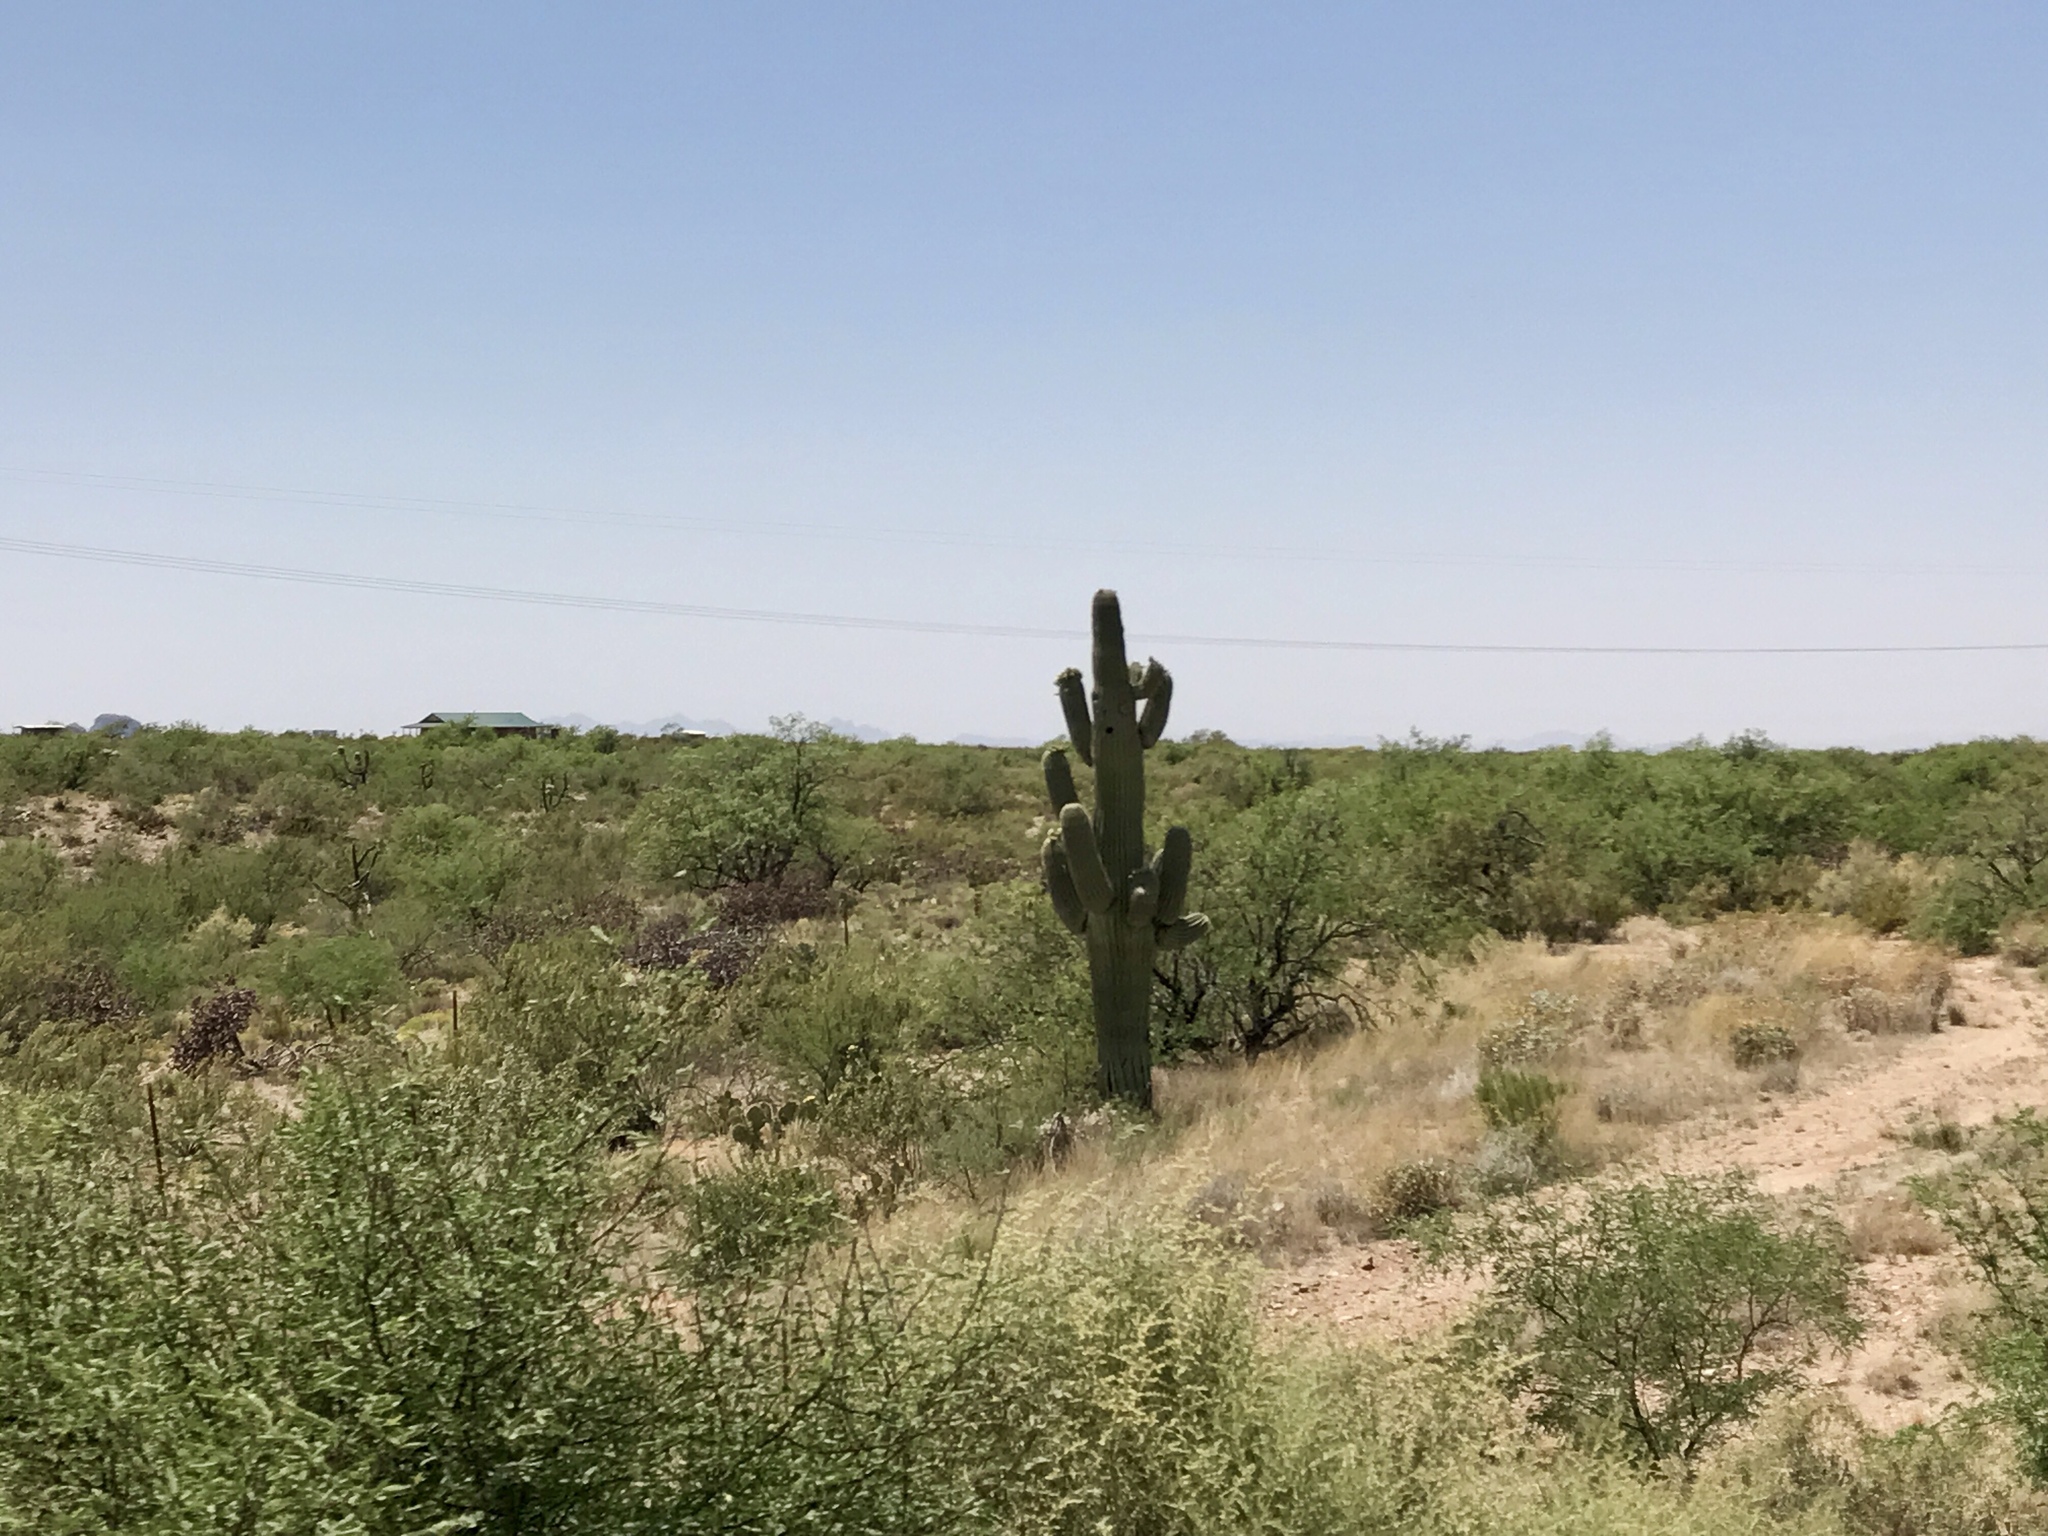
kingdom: Plantae
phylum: Tracheophyta
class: Magnoliopsida
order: Caryophyllales
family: Cactaceae
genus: Carnegiea
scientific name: Carnegiea gigantea
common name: Saguaro
